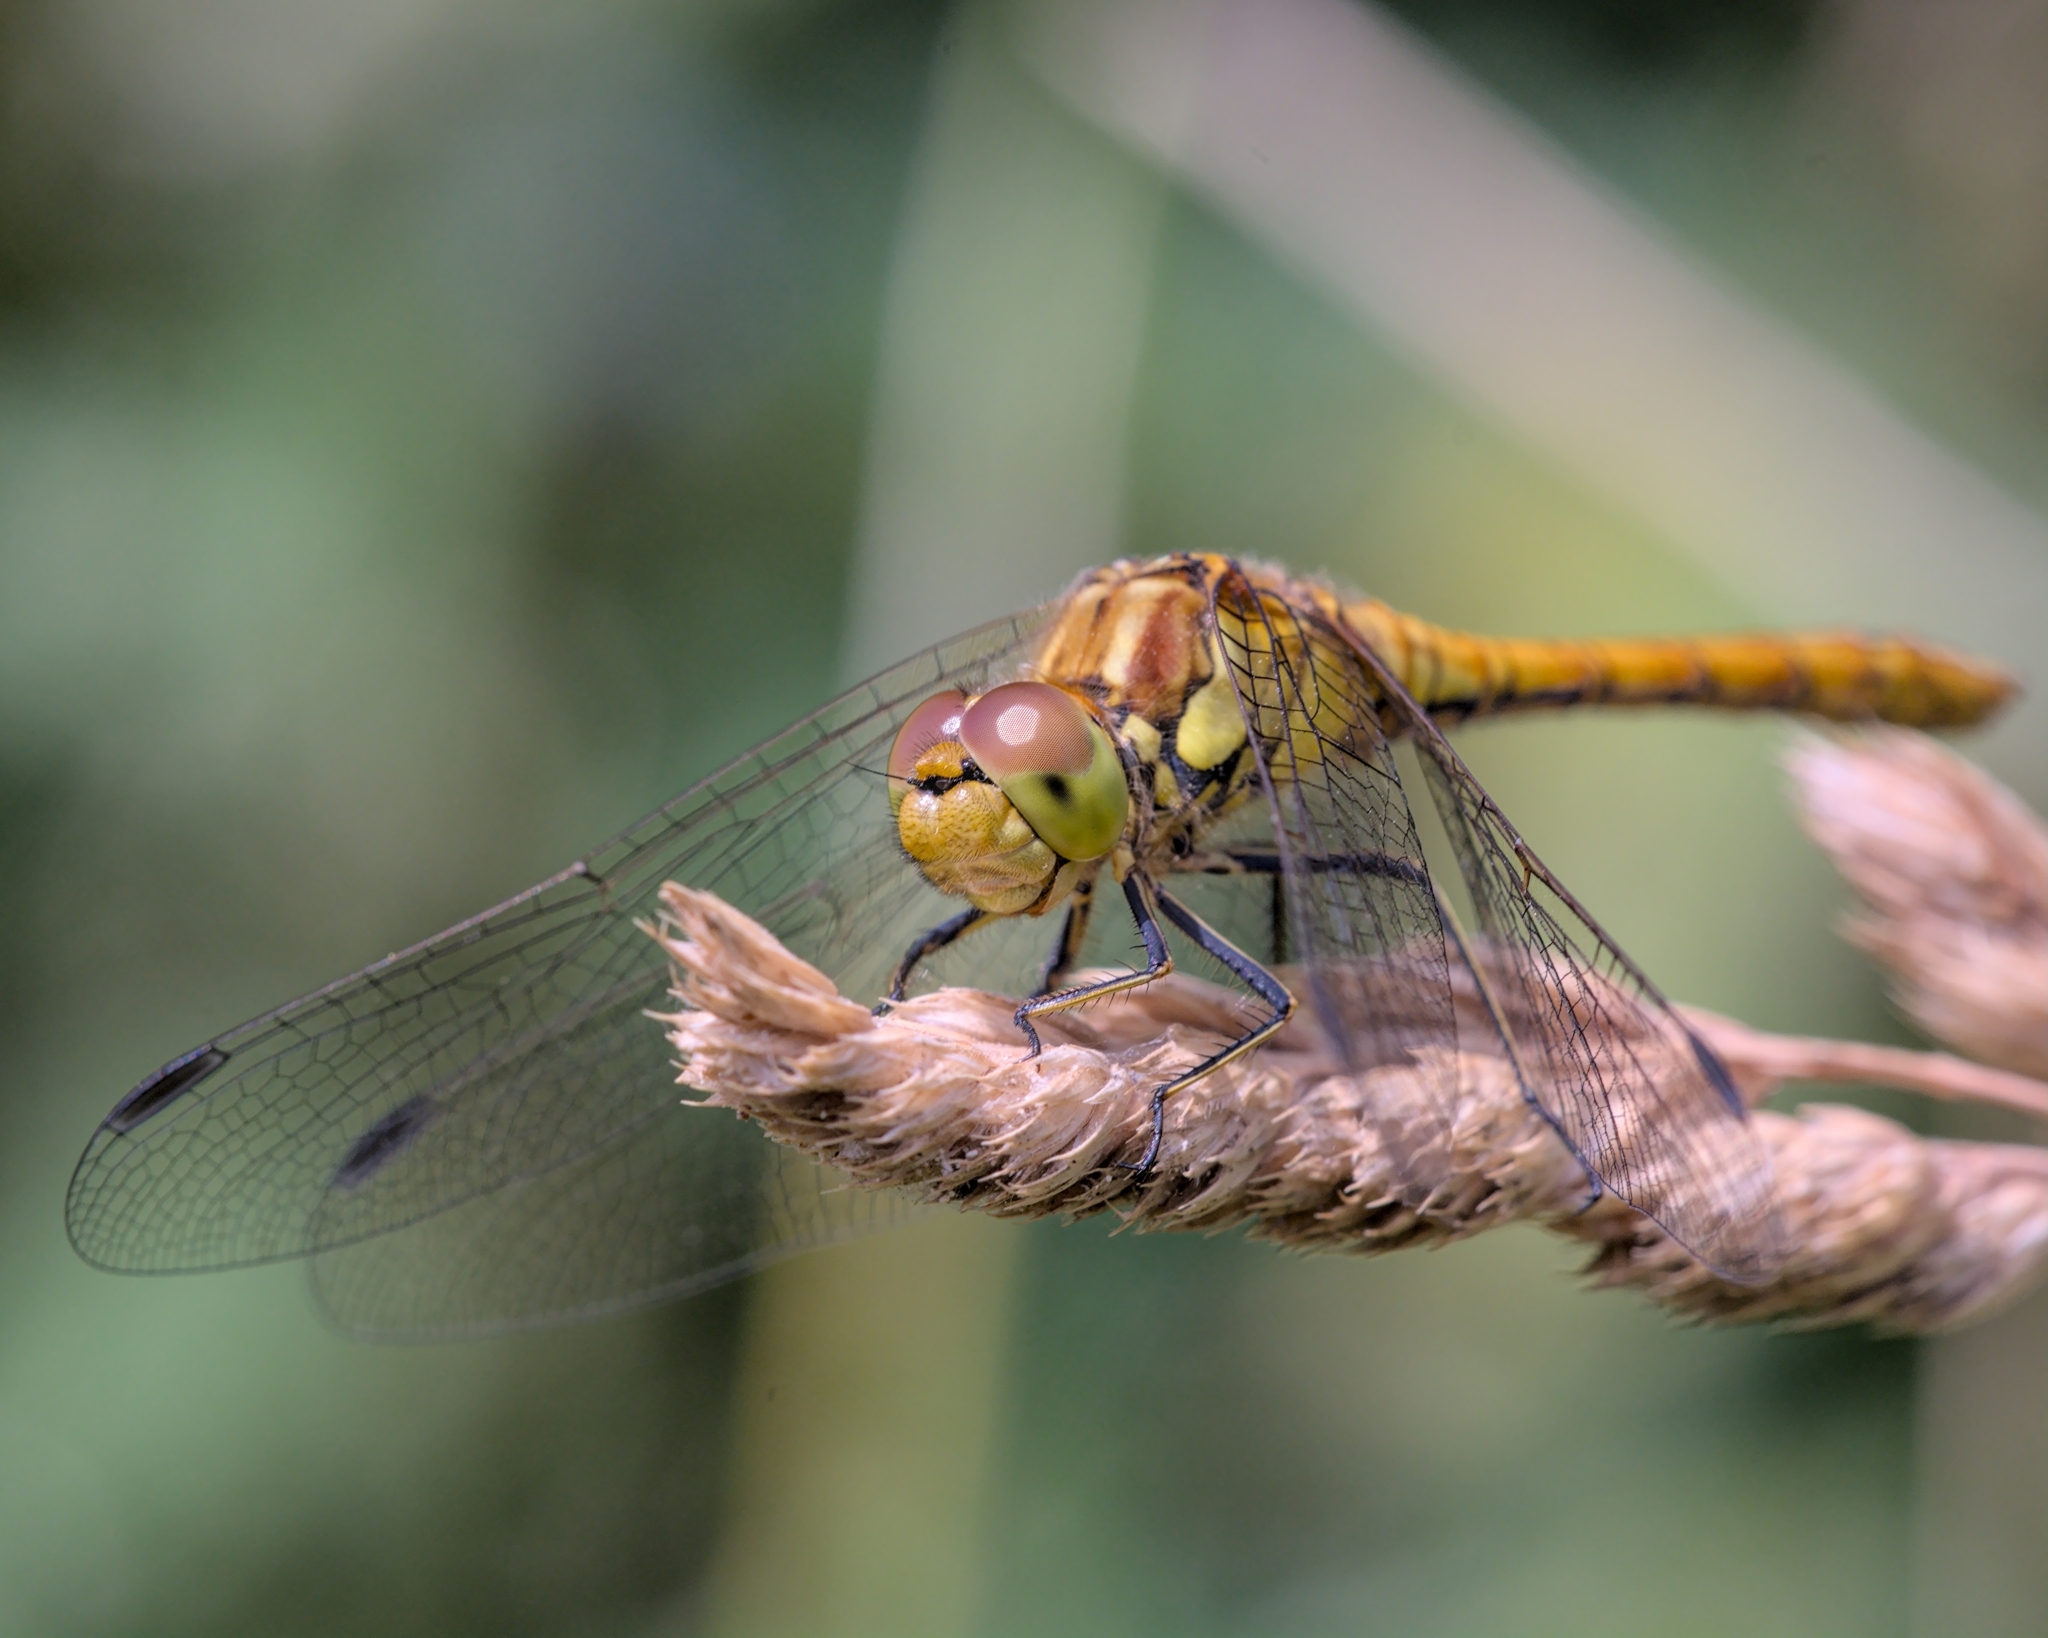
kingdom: Animalia
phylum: Arthropoda
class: Insecta
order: Odonata
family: Libellulidae
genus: Sympetrum
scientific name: Sympetrum striolatum
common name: Common darter
